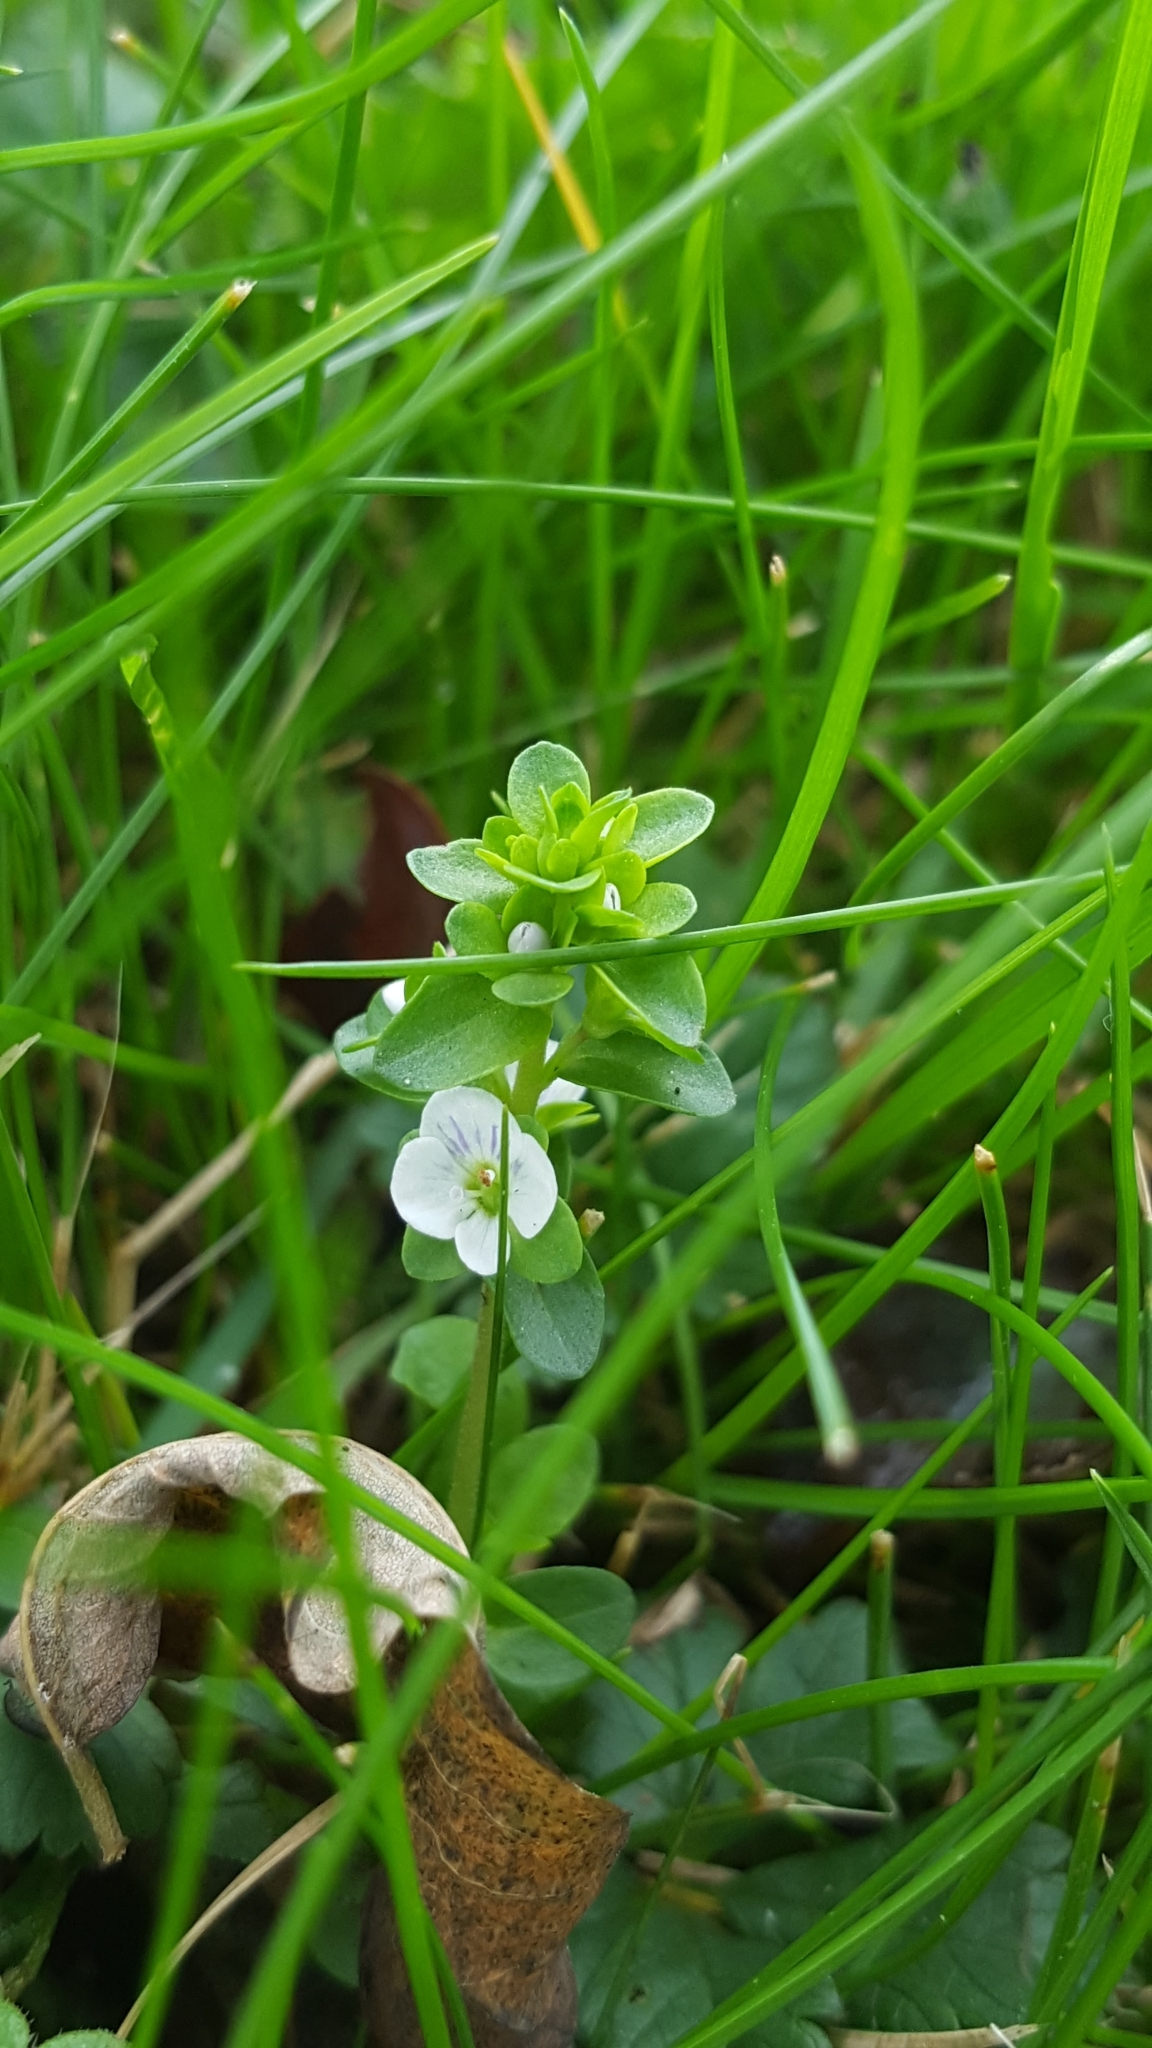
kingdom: Plantae
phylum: Tracheophyta
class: Magnoliopsida
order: Lamiales
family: Plantaginaceae
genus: Veronica
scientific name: Veronica serpyllifolia
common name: Thyme-leaved speedwell
